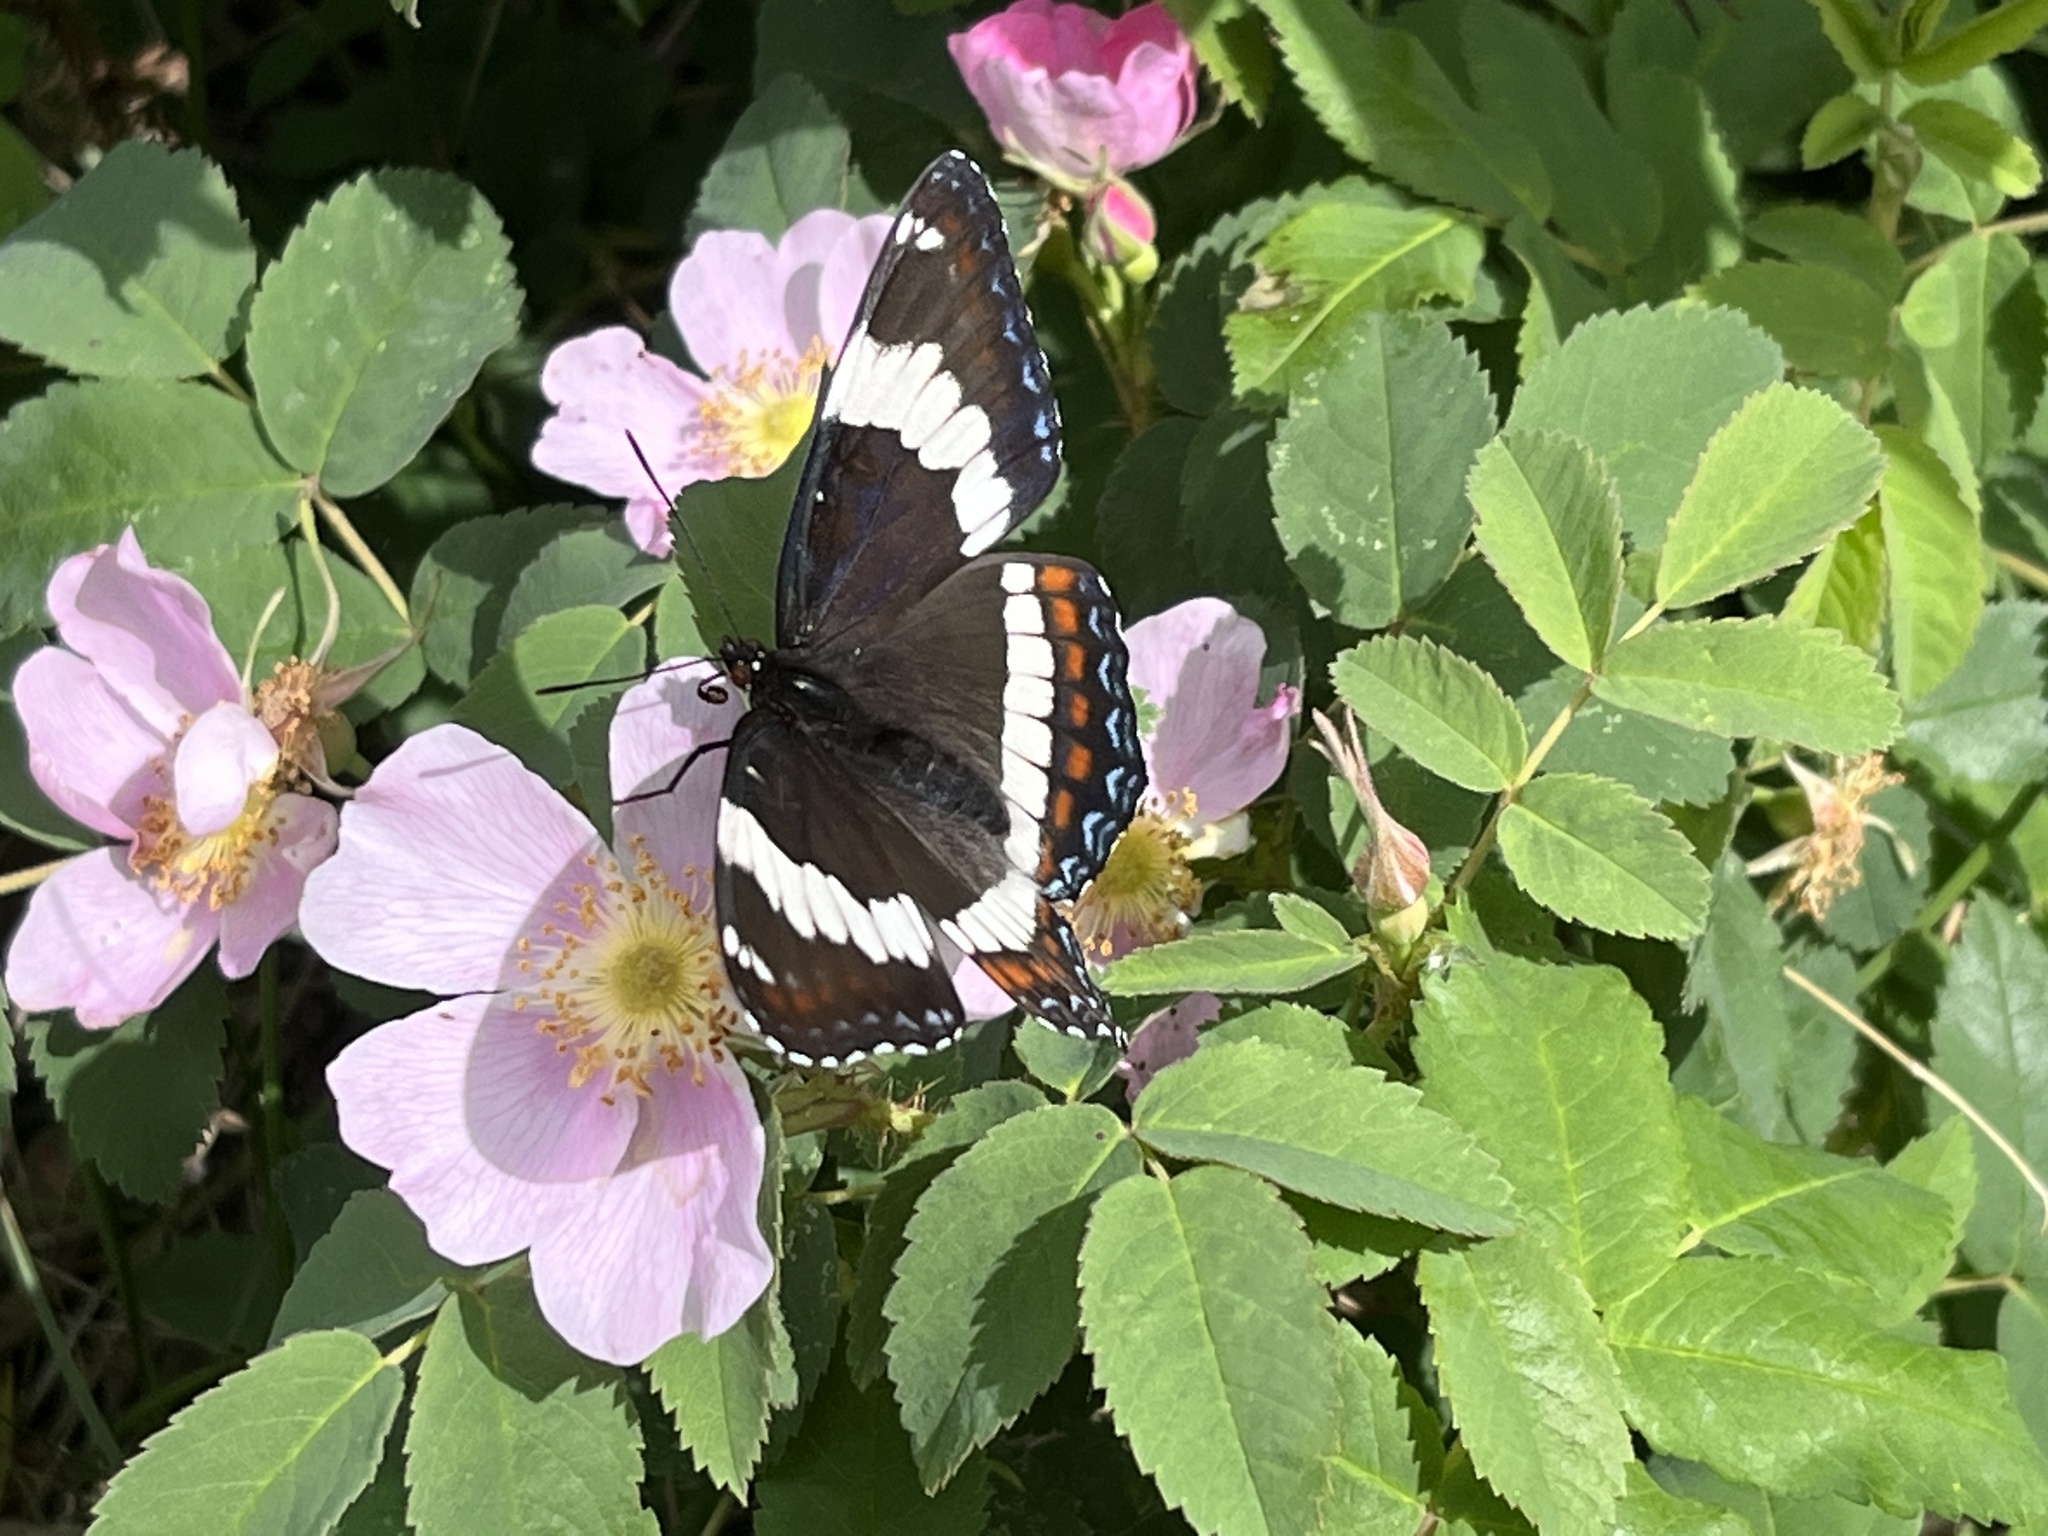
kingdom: Animalia
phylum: Arthropoda
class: Insecta
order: Lepidoptera
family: Nymphalidae
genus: Limenitis
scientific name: Limenitis arthemis
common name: Red-spotted admiral
